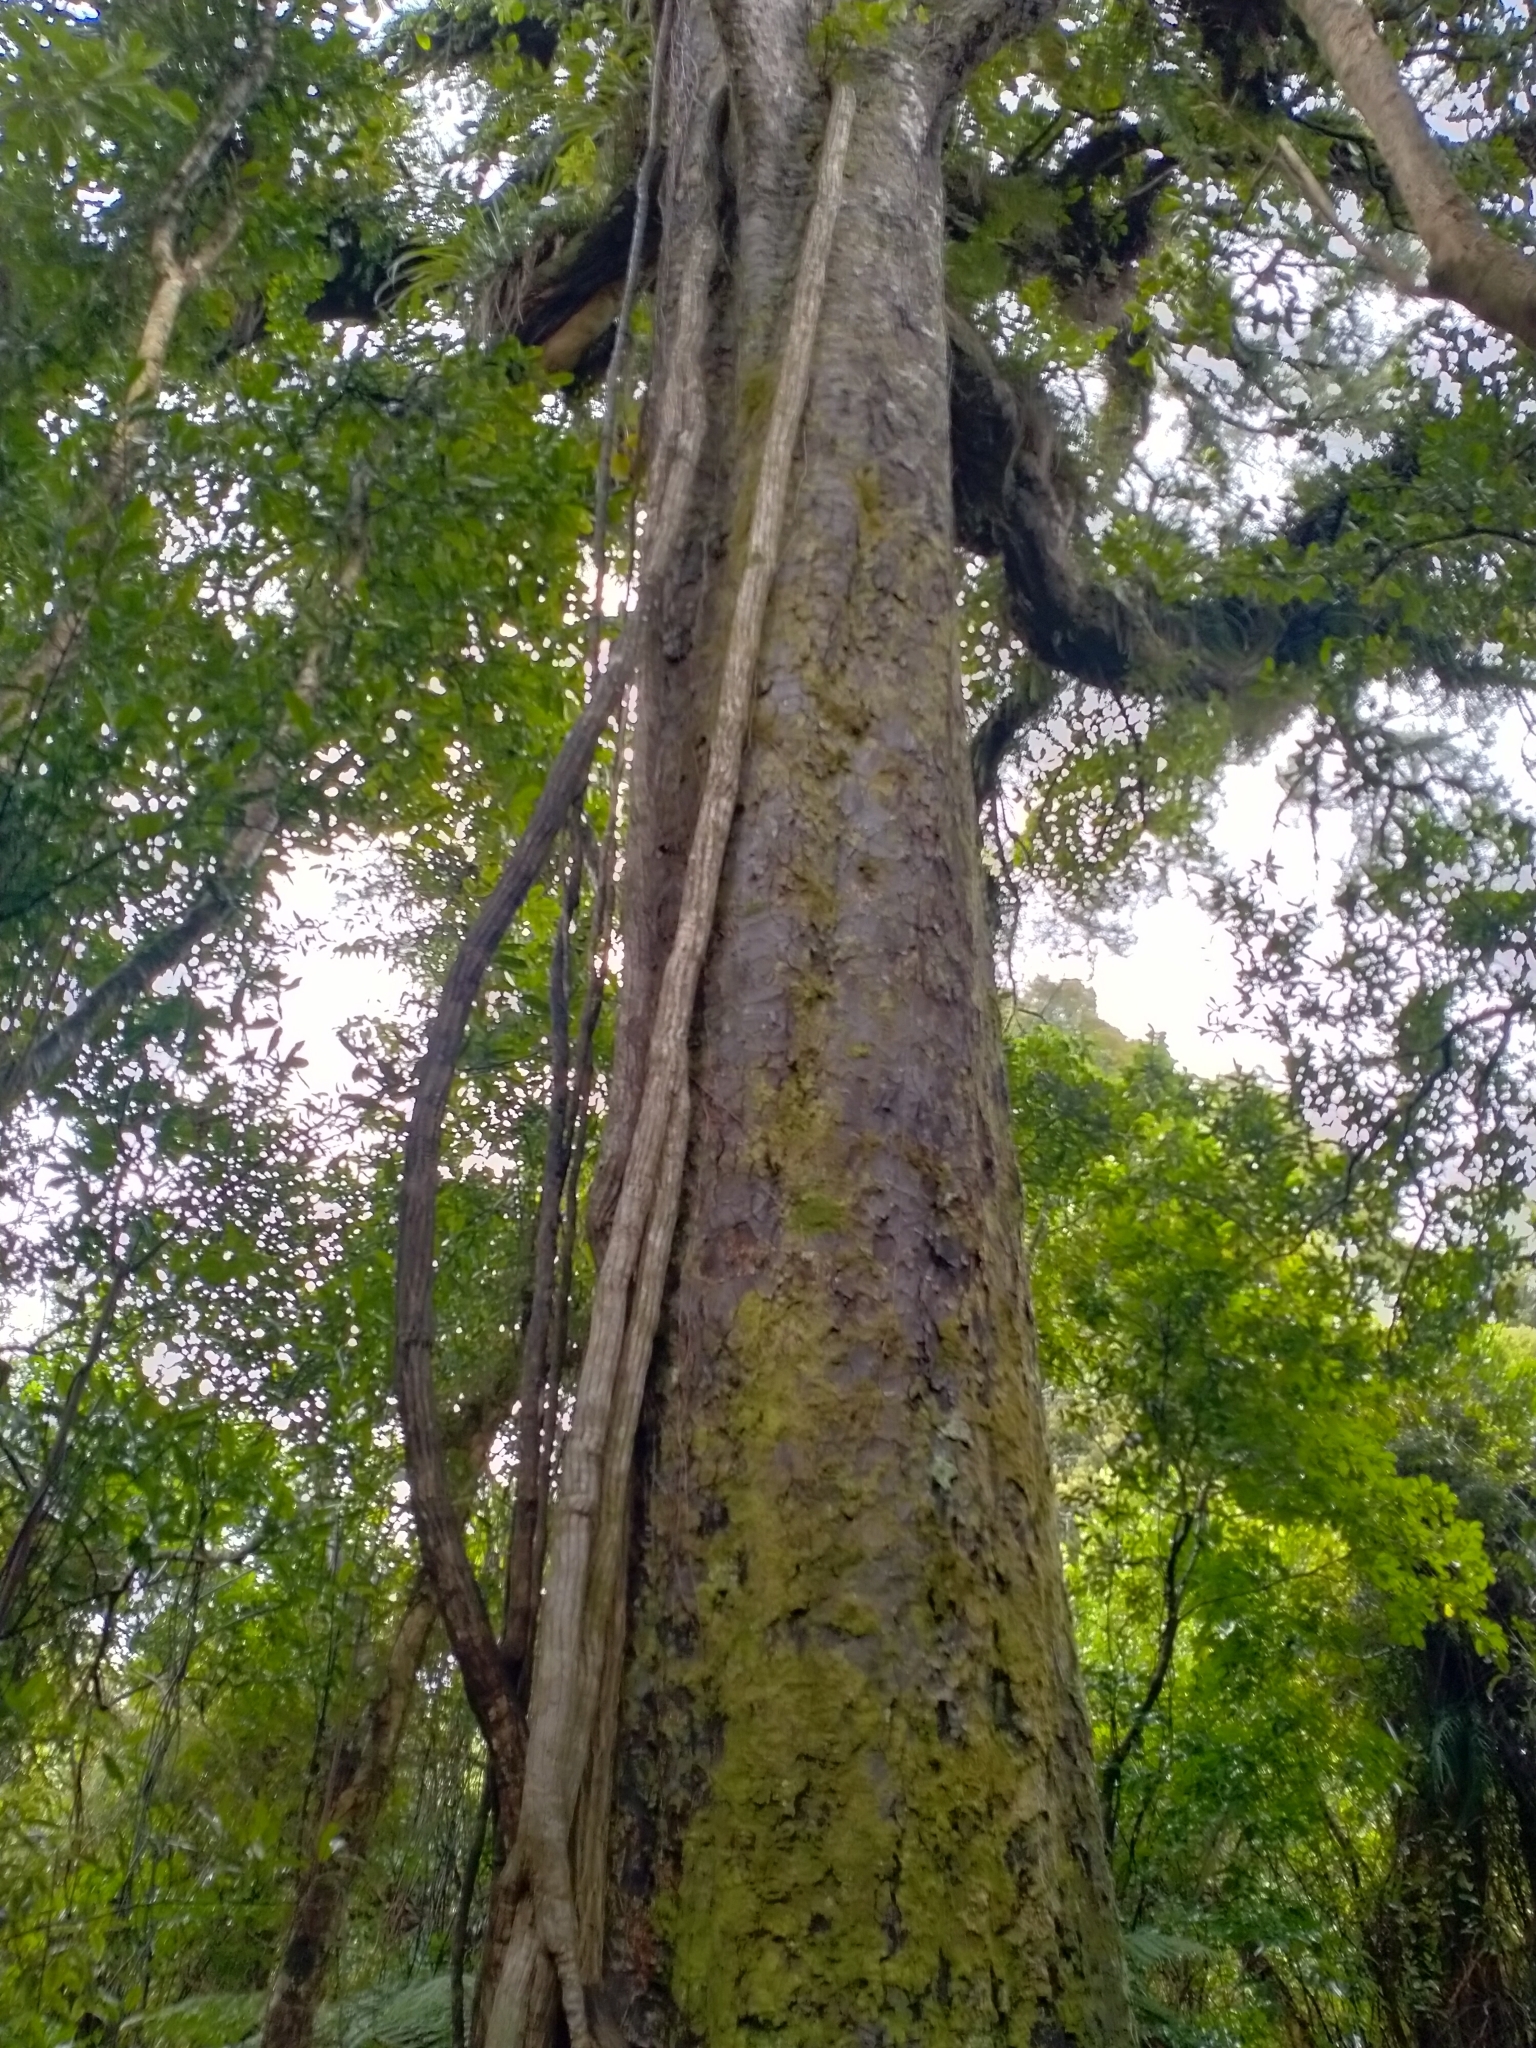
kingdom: Plantae
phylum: Tracheophyta
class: Pinopsida
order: Pinales
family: Podocarpaceae
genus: Dacrycarpus
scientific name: Dacrycarpus dacrydioides
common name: White pine
